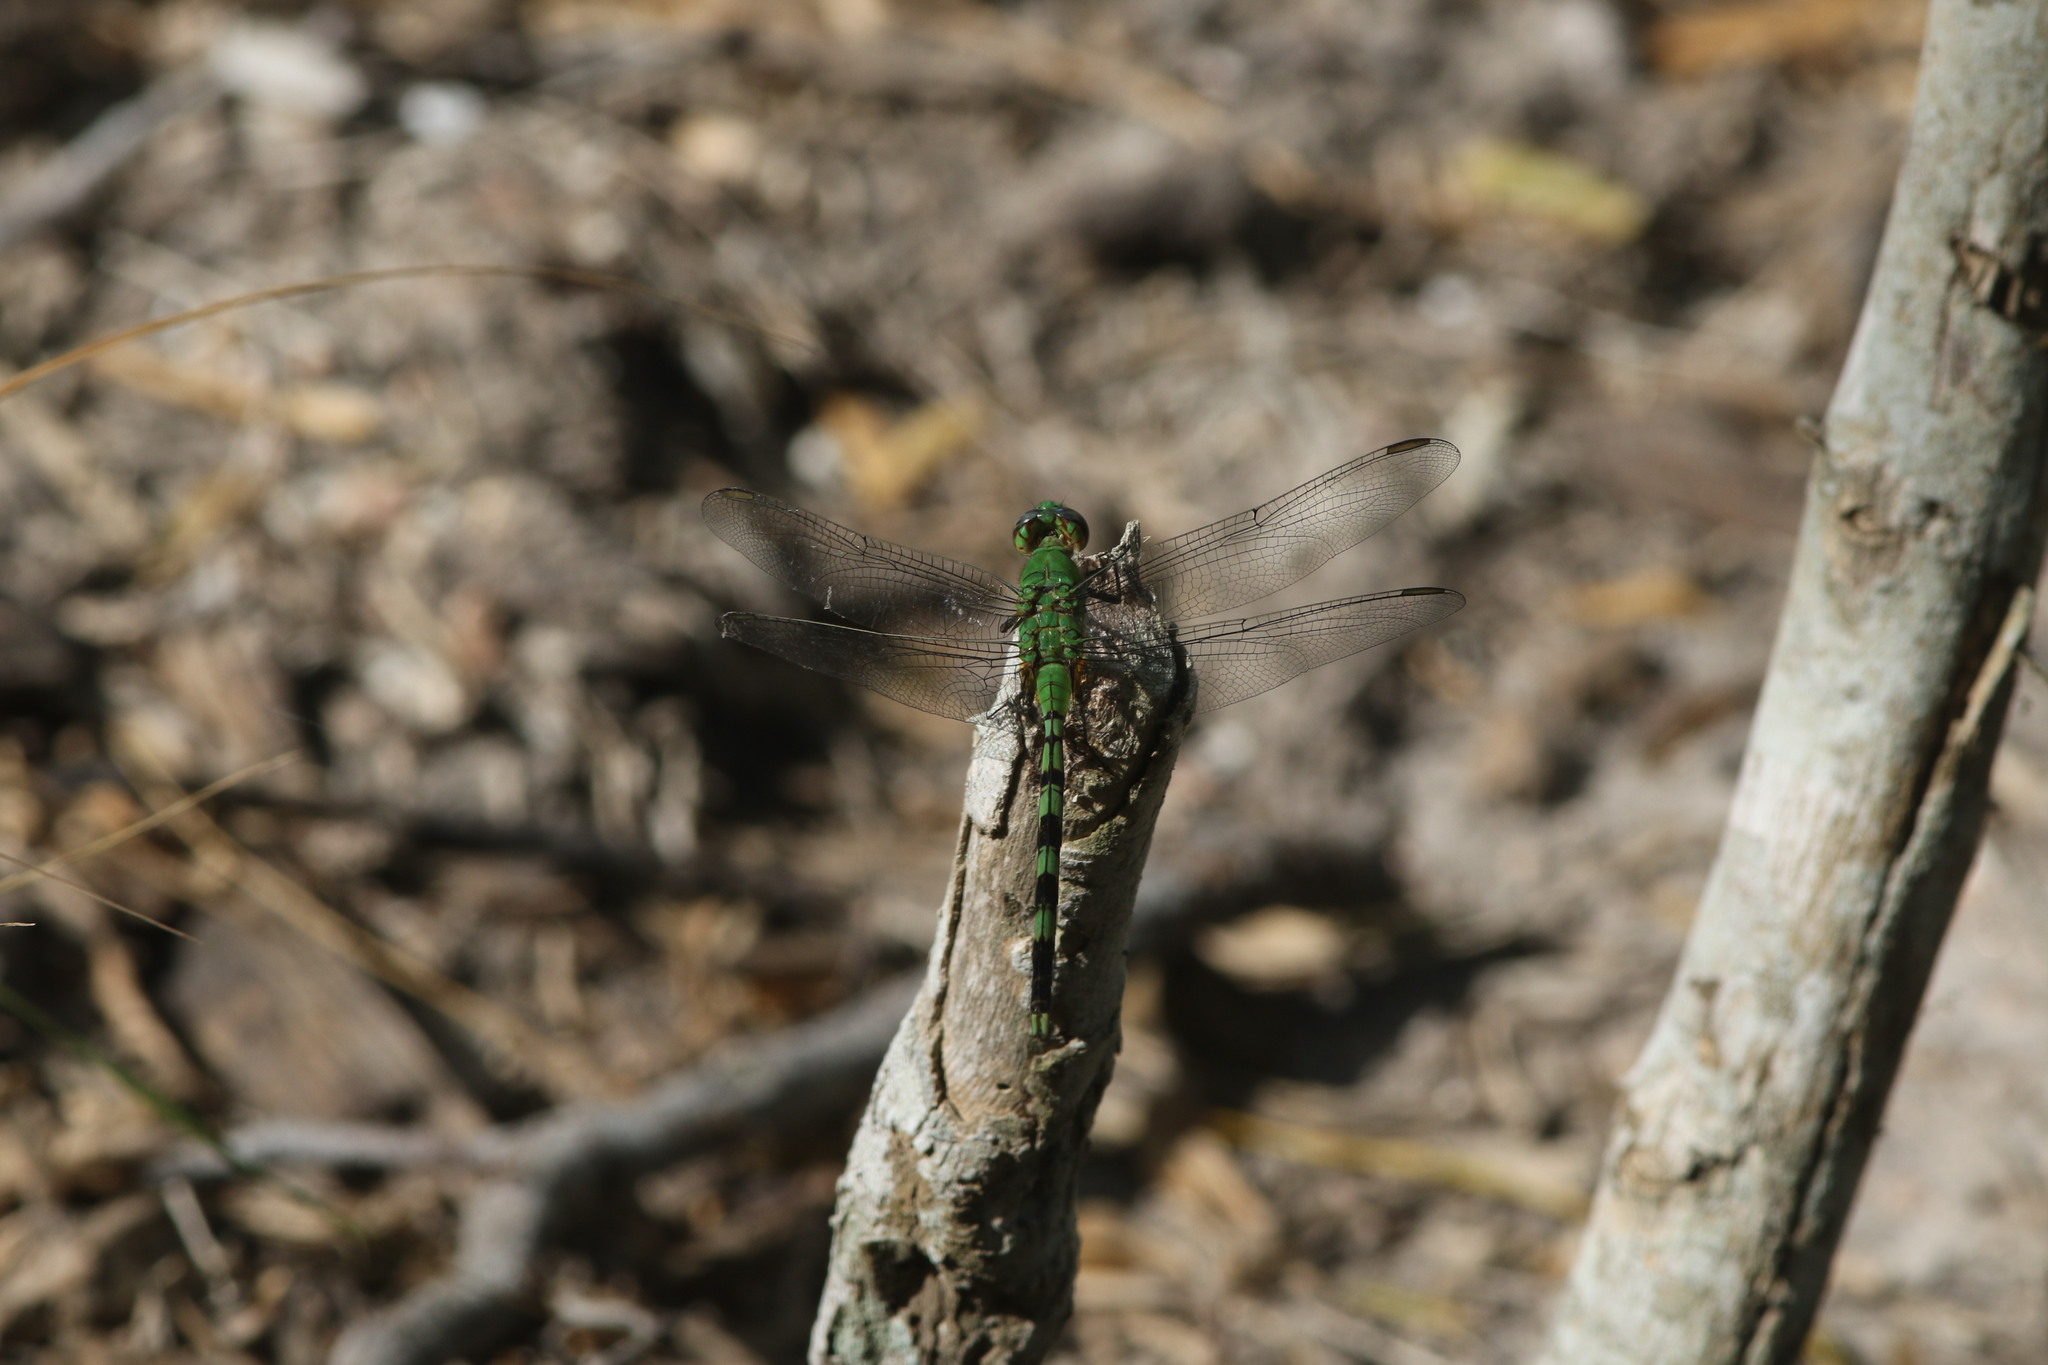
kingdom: Animalia
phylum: Arthropoda
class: Insecta
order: Odonata
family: Libellulidae
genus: Erythemis
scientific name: Erythemis vesiculosa
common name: Great pondhawk
